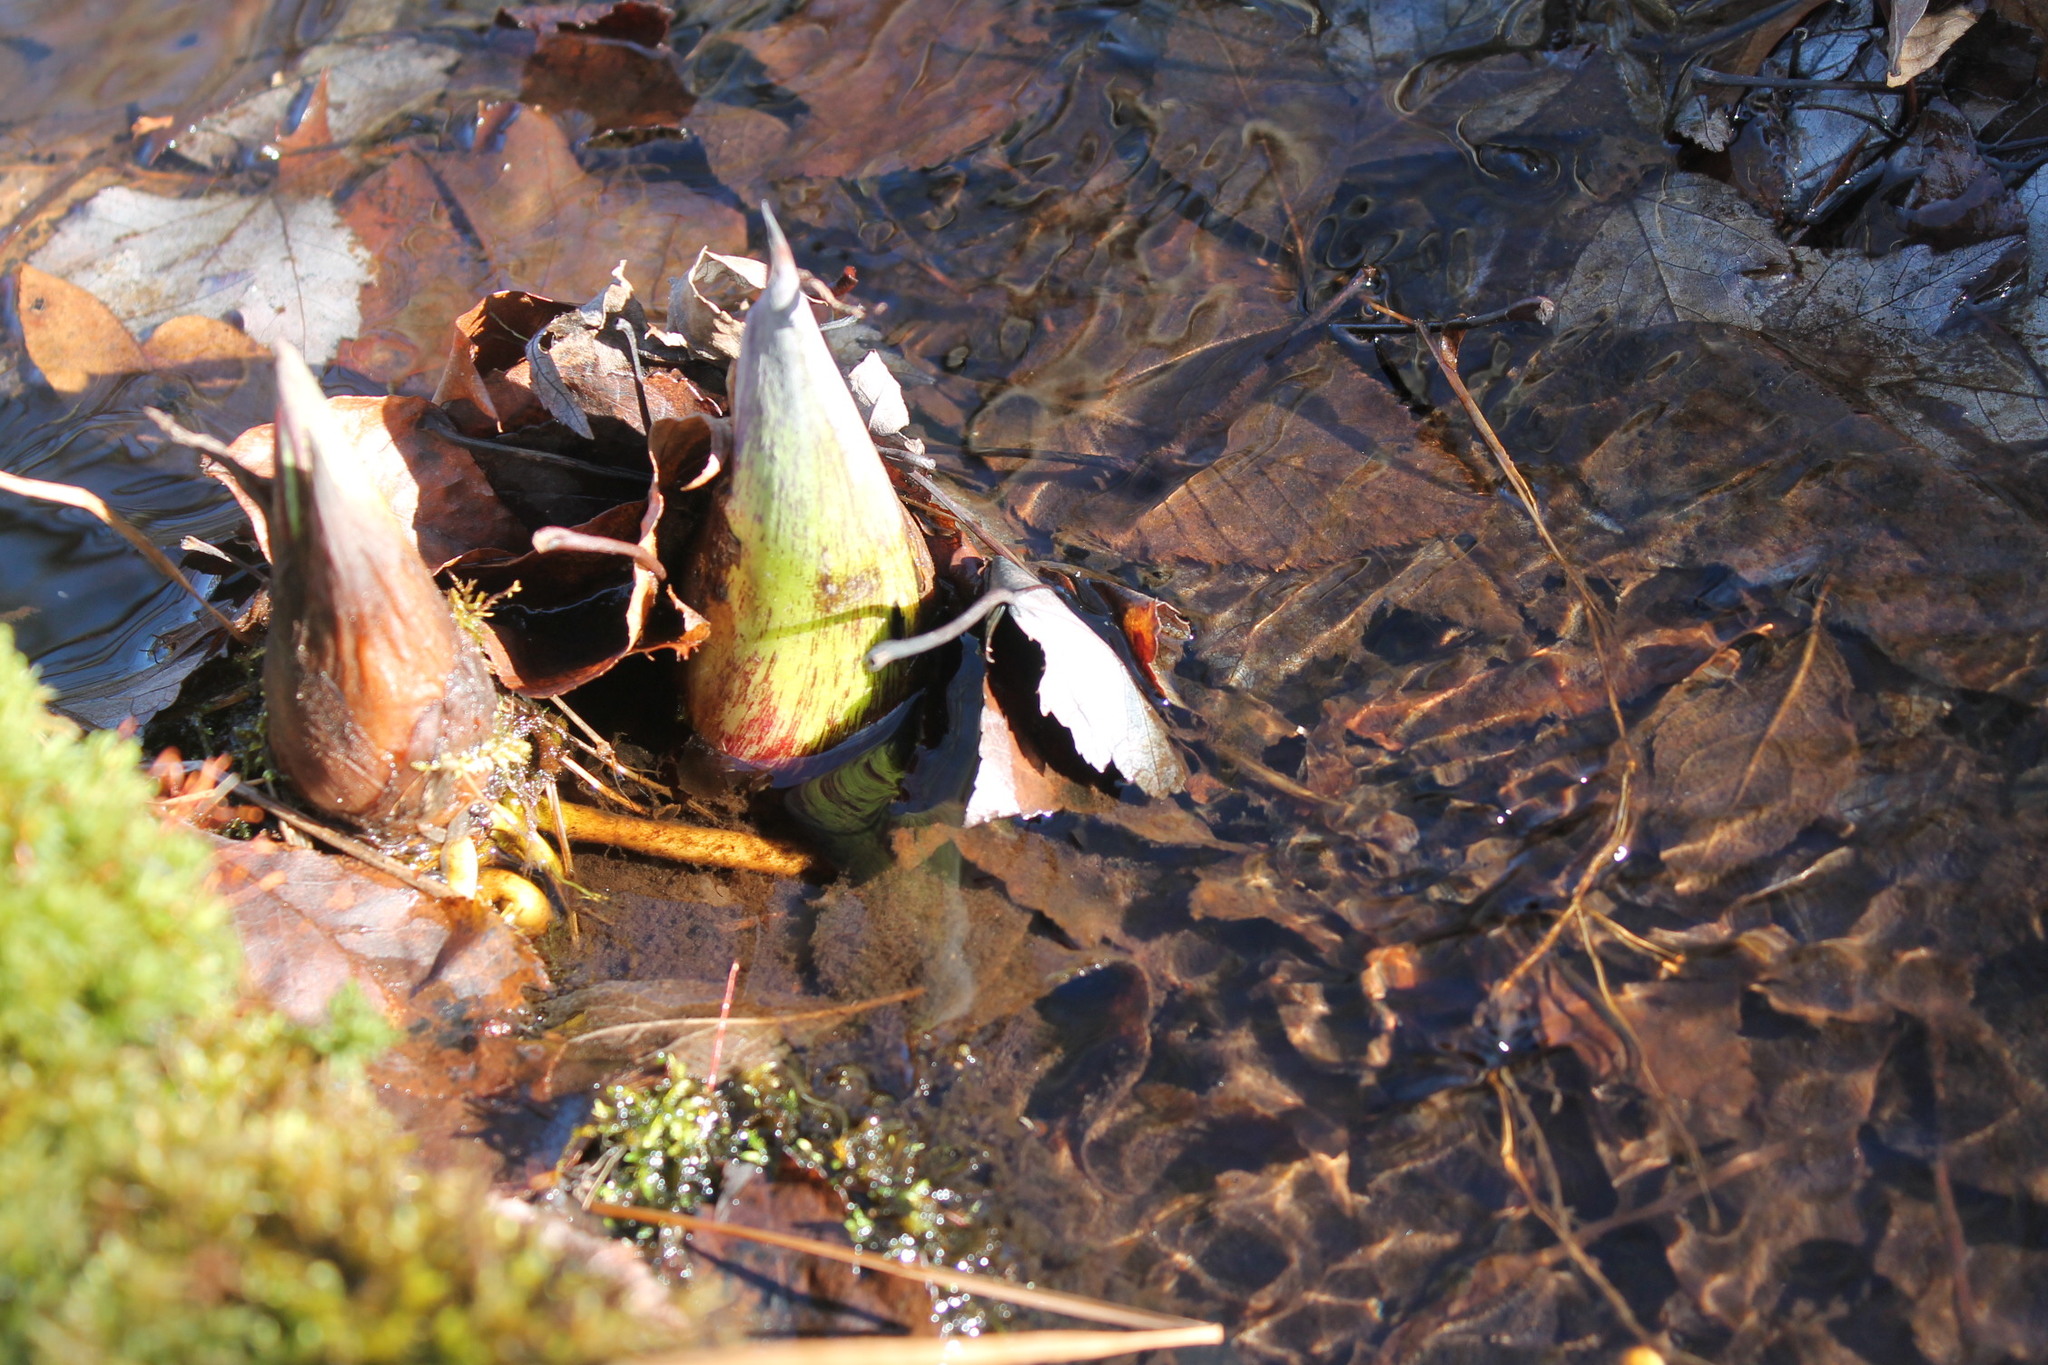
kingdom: Plantae
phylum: Tracheophyta
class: Liliopsida
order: Alismatales
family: Araceae
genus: Symplocarpus
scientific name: Symplocarpus foetidus
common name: Eastern skunk cabbage
